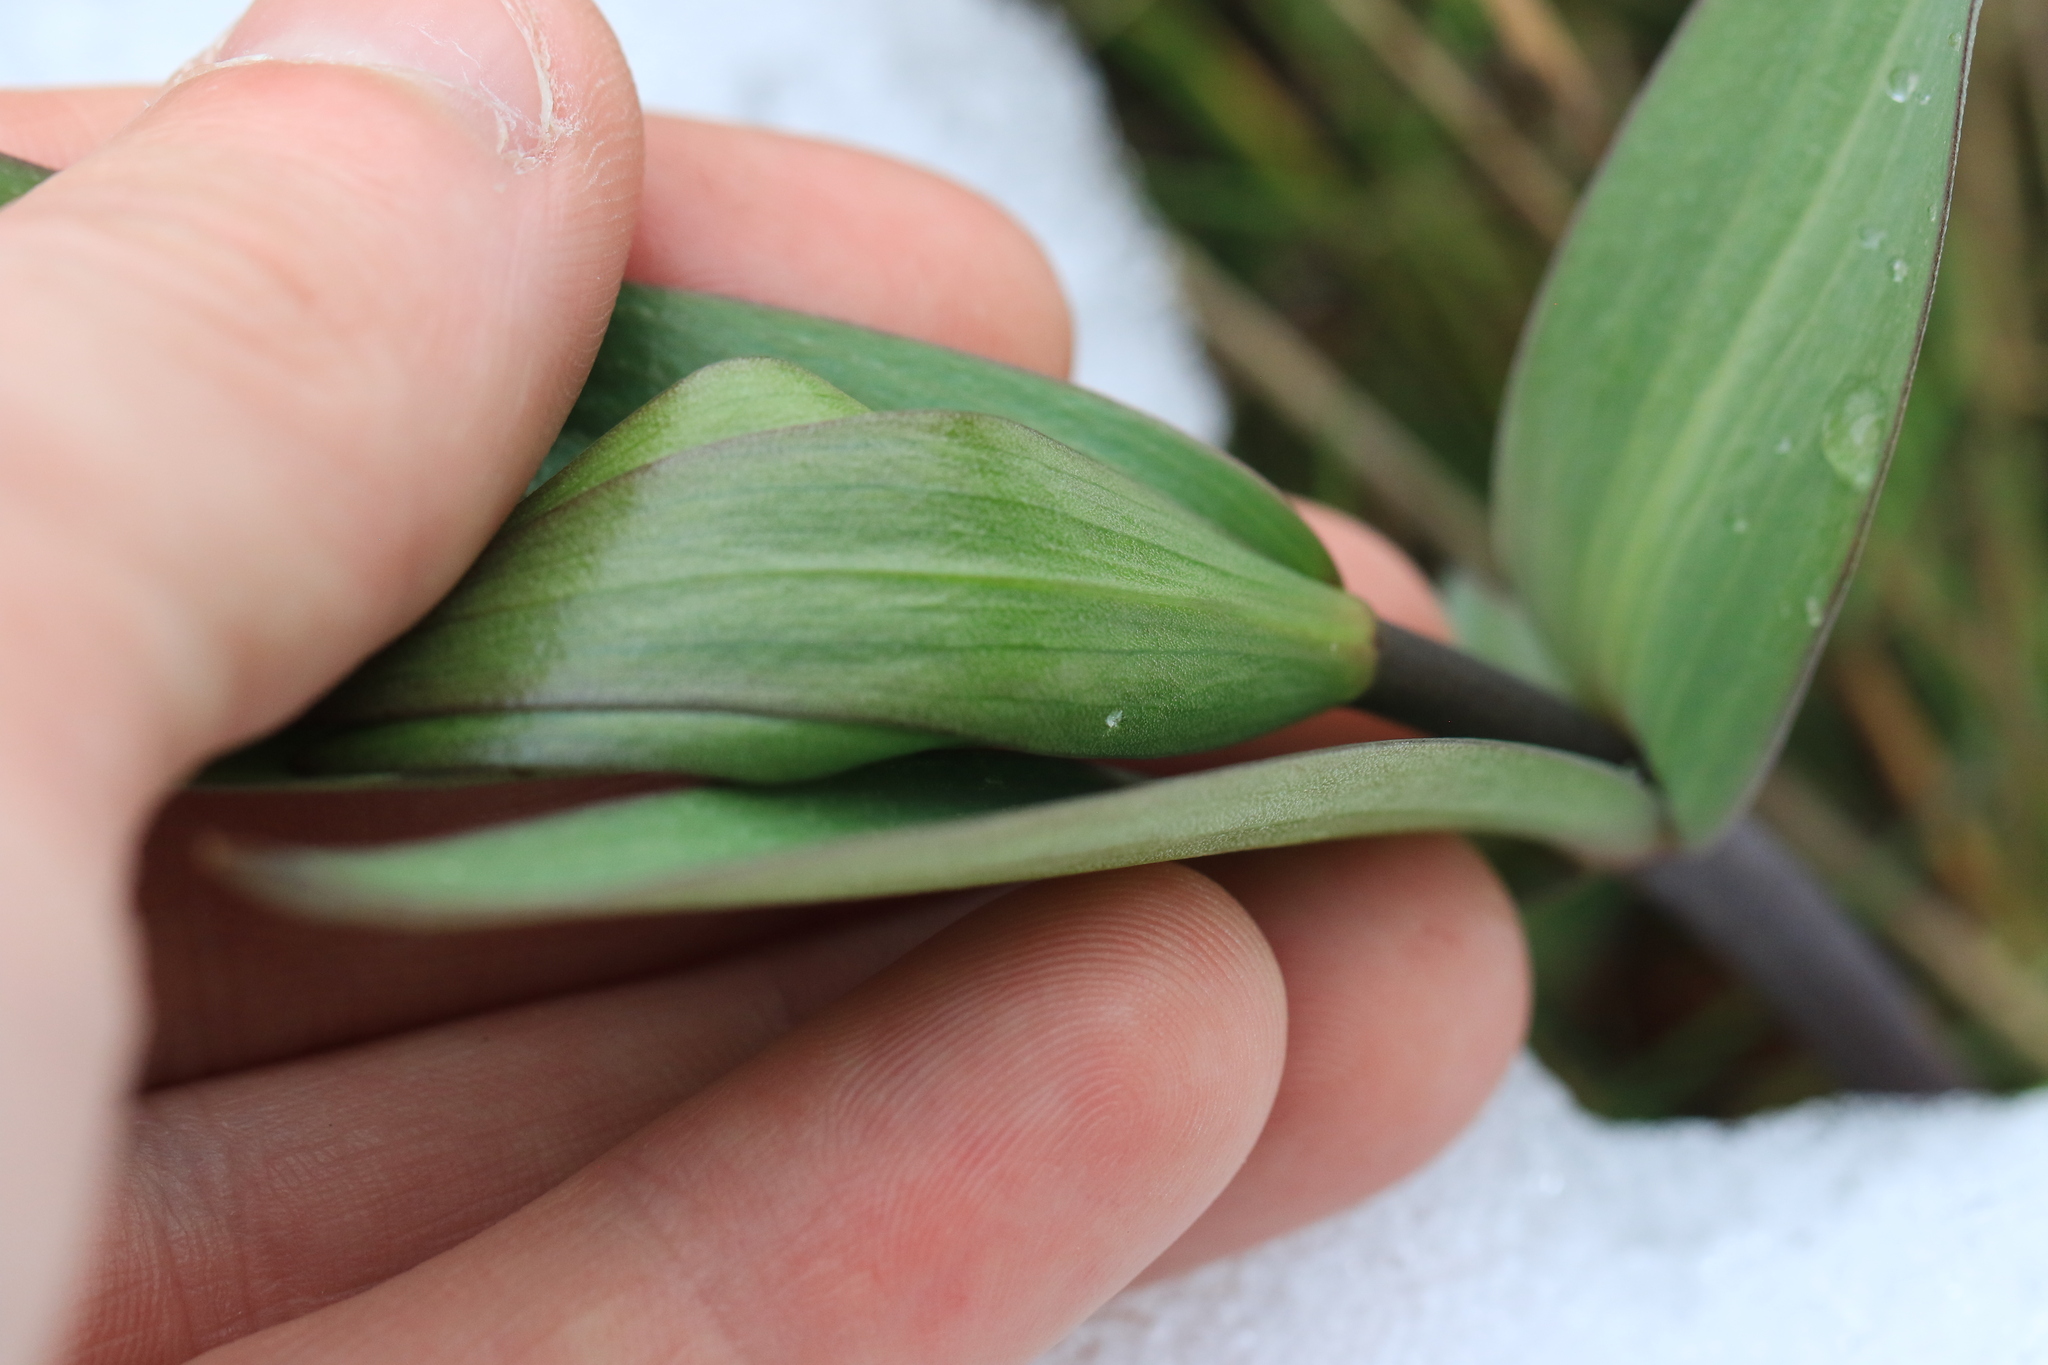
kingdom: Plantae
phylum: Tracheophyta
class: Liliopsida
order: Liliales
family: Liliaceae
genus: Fritillaria
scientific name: Fritillaria affinis
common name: Ojai fritillary
